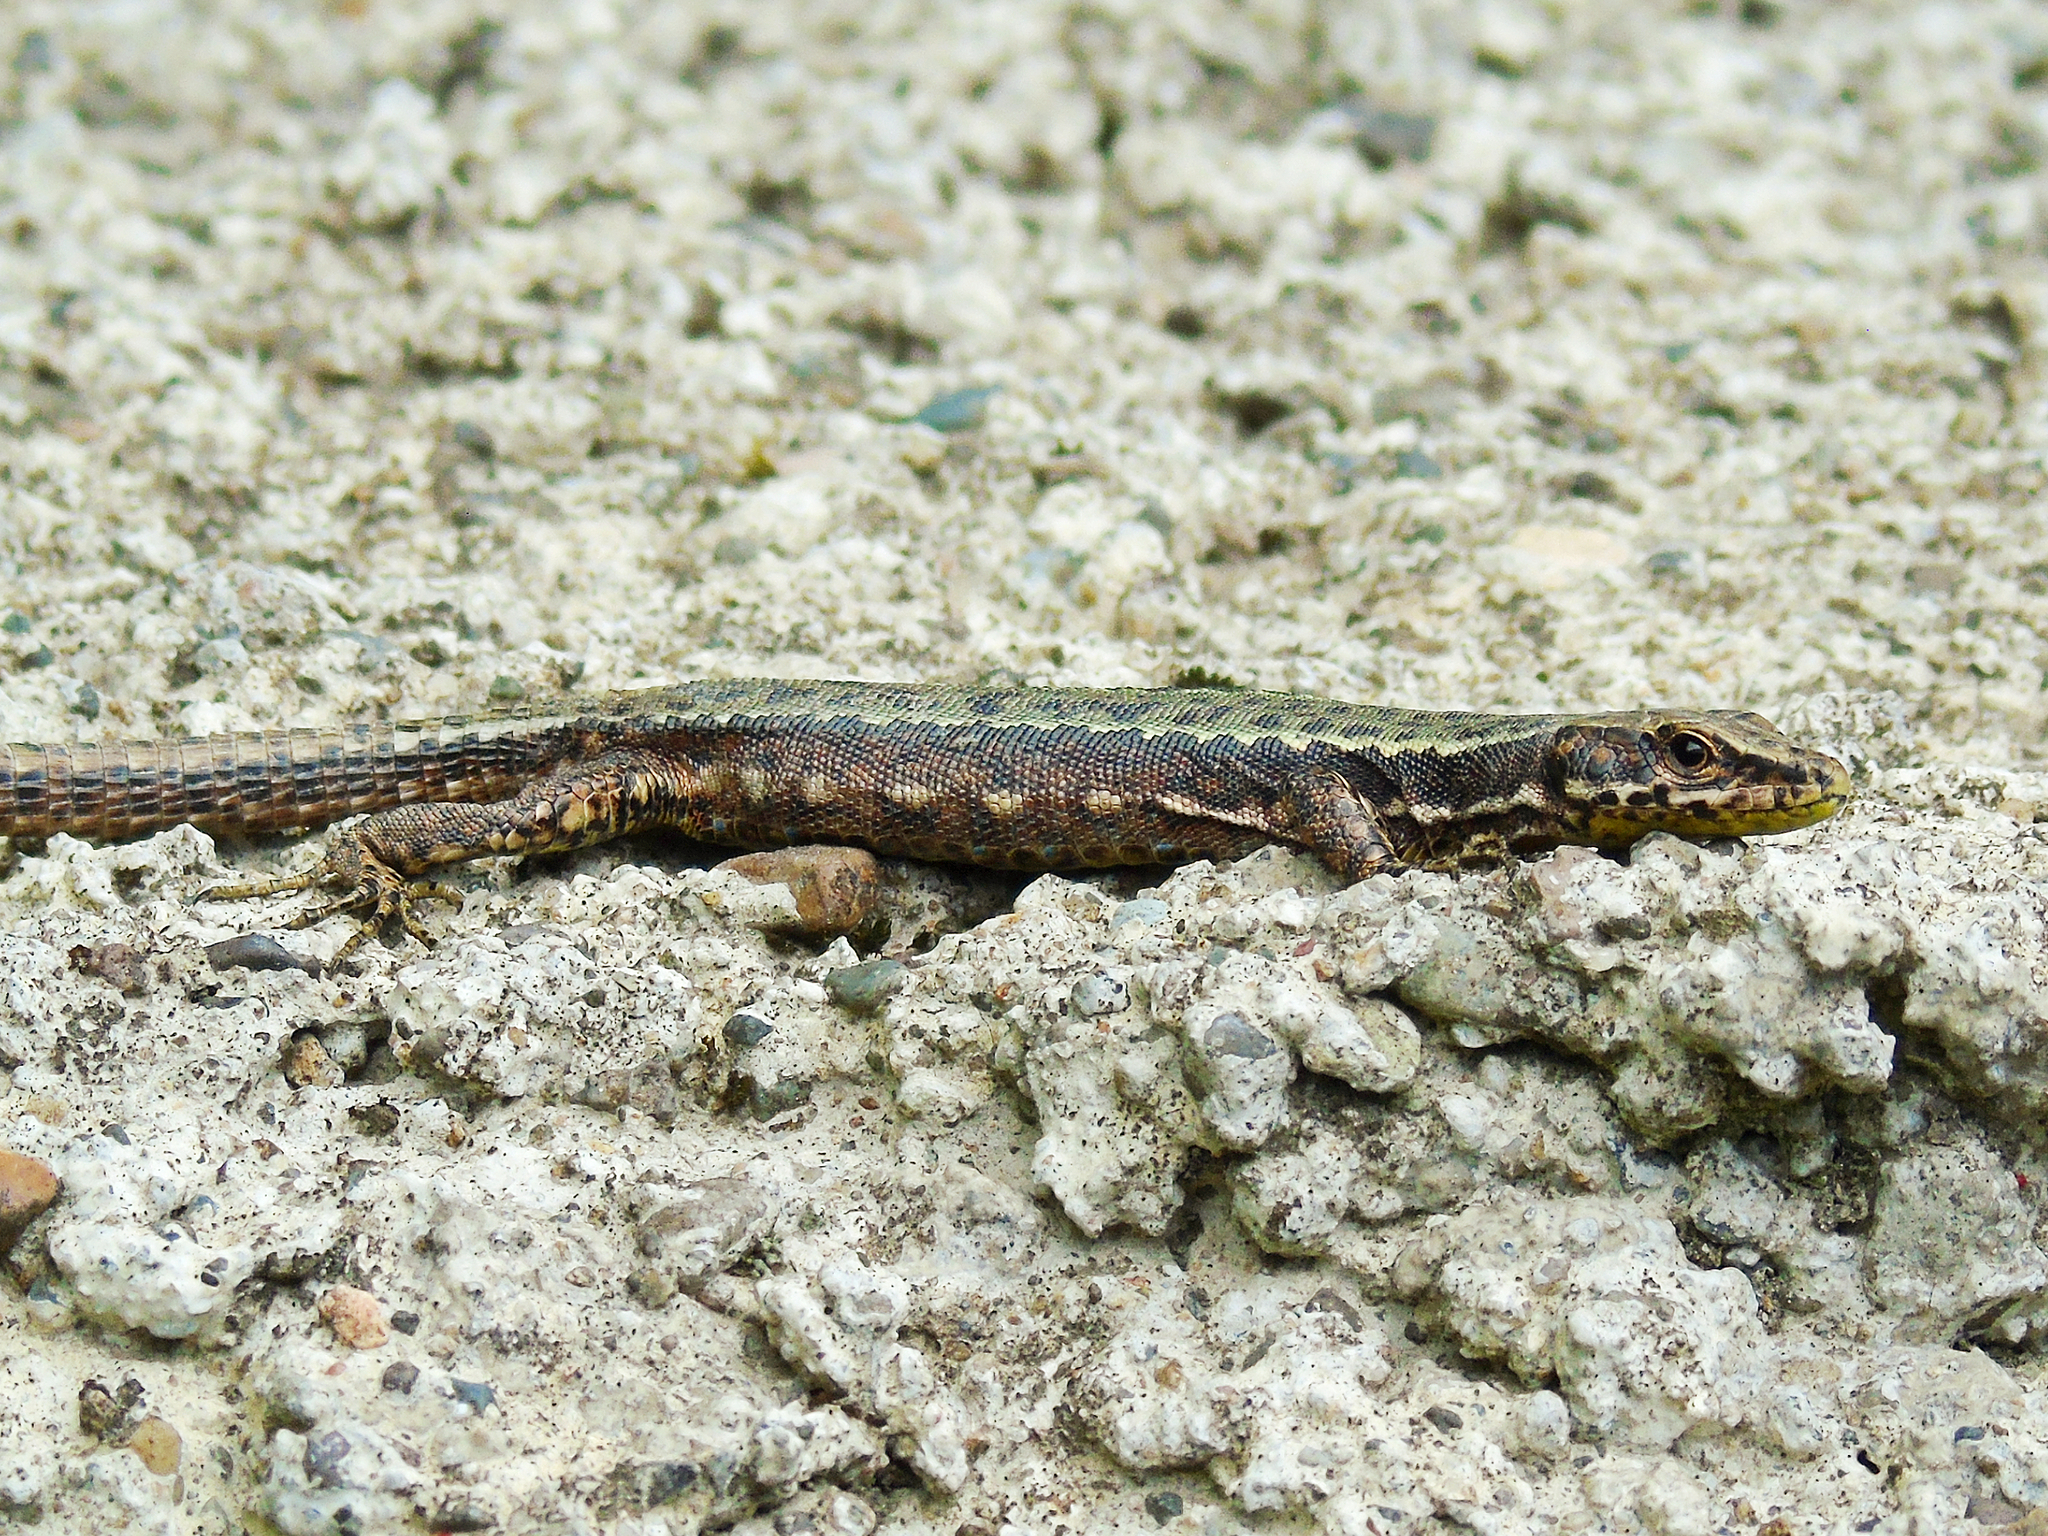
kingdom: Animalia
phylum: Chordata
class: Squamata
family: Lacertidae
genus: Darevskia
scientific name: Darevskia clarkorum
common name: Clarks' lizard
